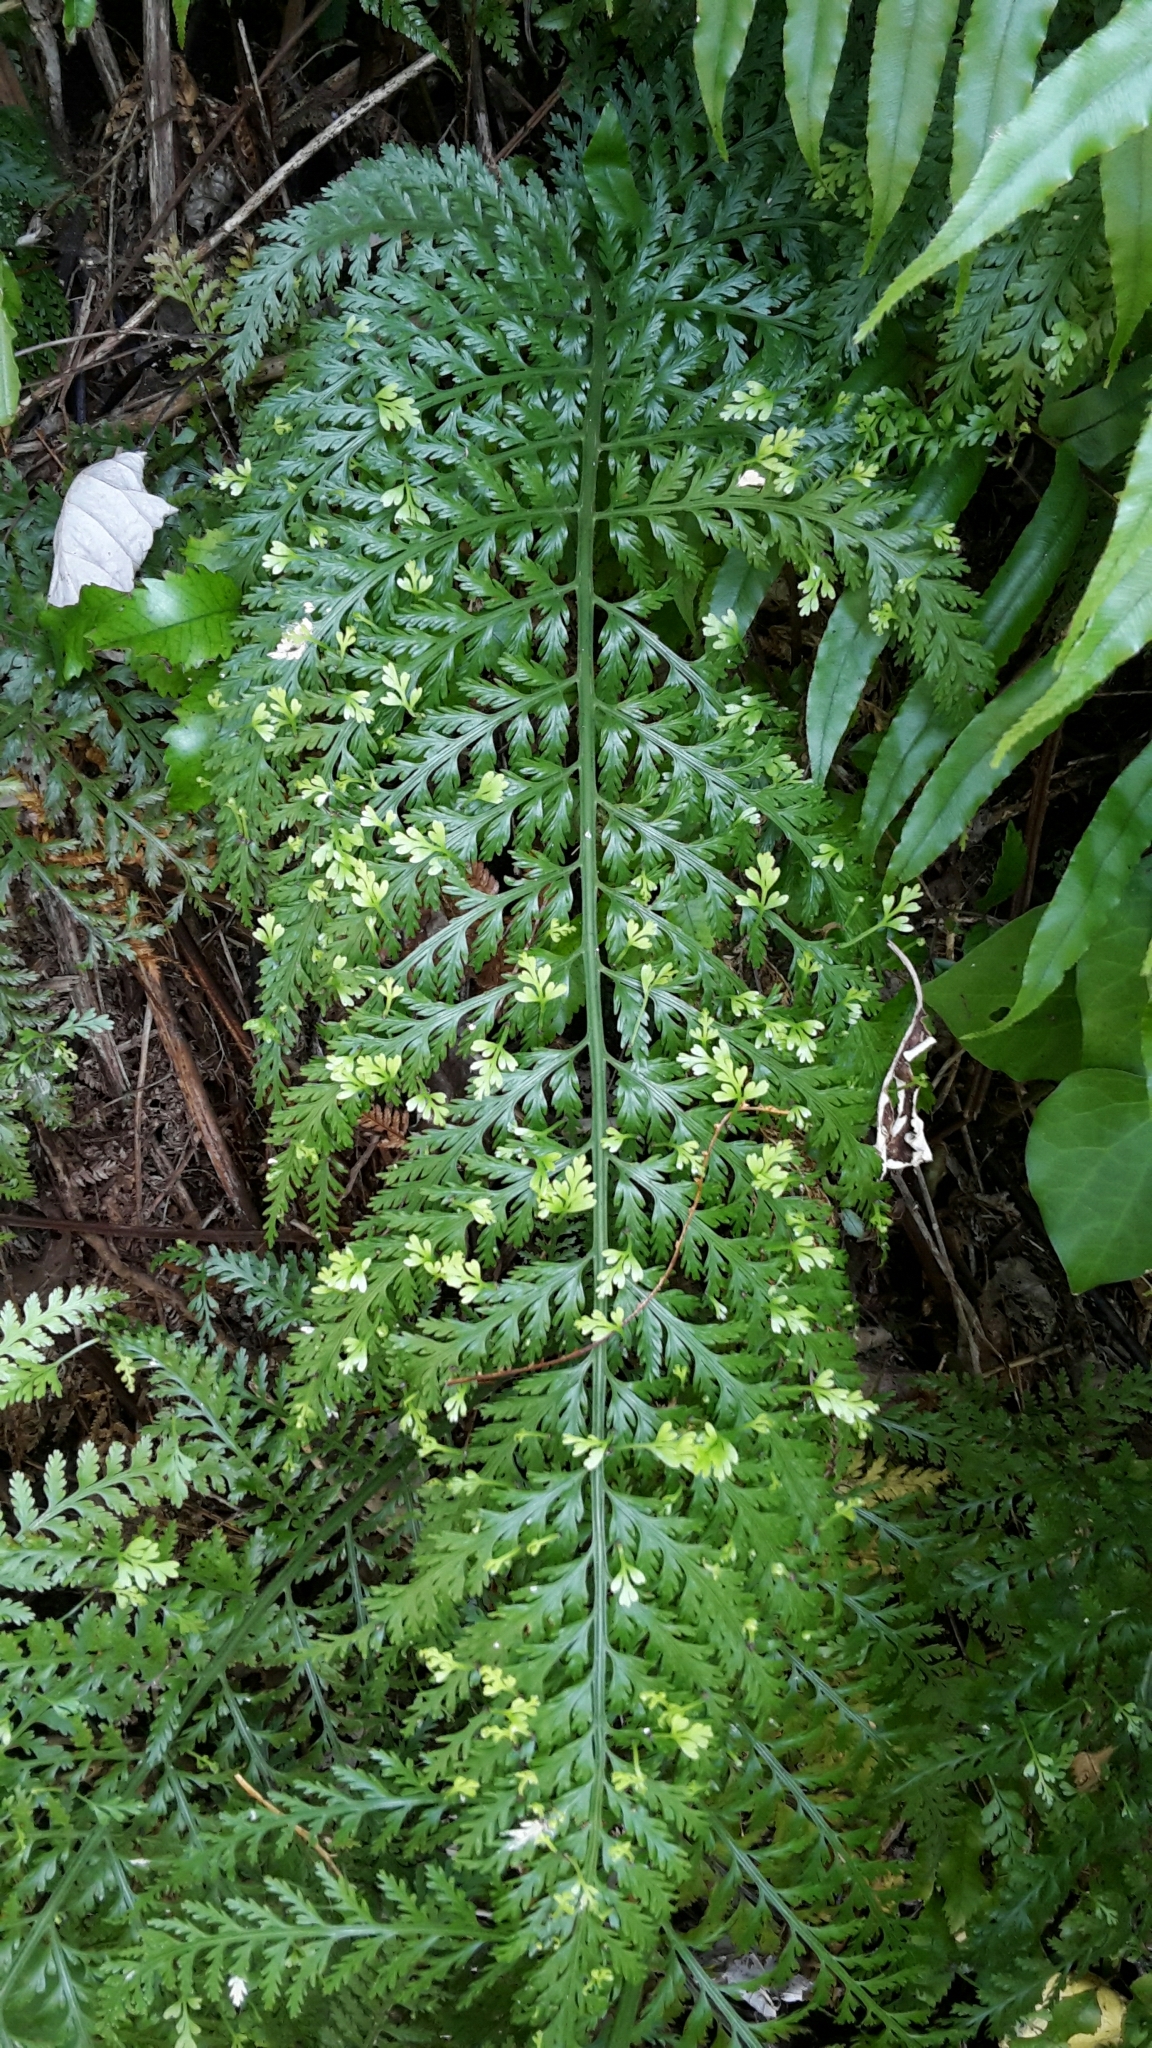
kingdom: Plantae
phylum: Tracheophyta
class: Polypodiopsida
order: Polypodiales
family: Aspleniaceae
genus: Asplenium
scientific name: Asplenium bulbiferum
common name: Mother fern
